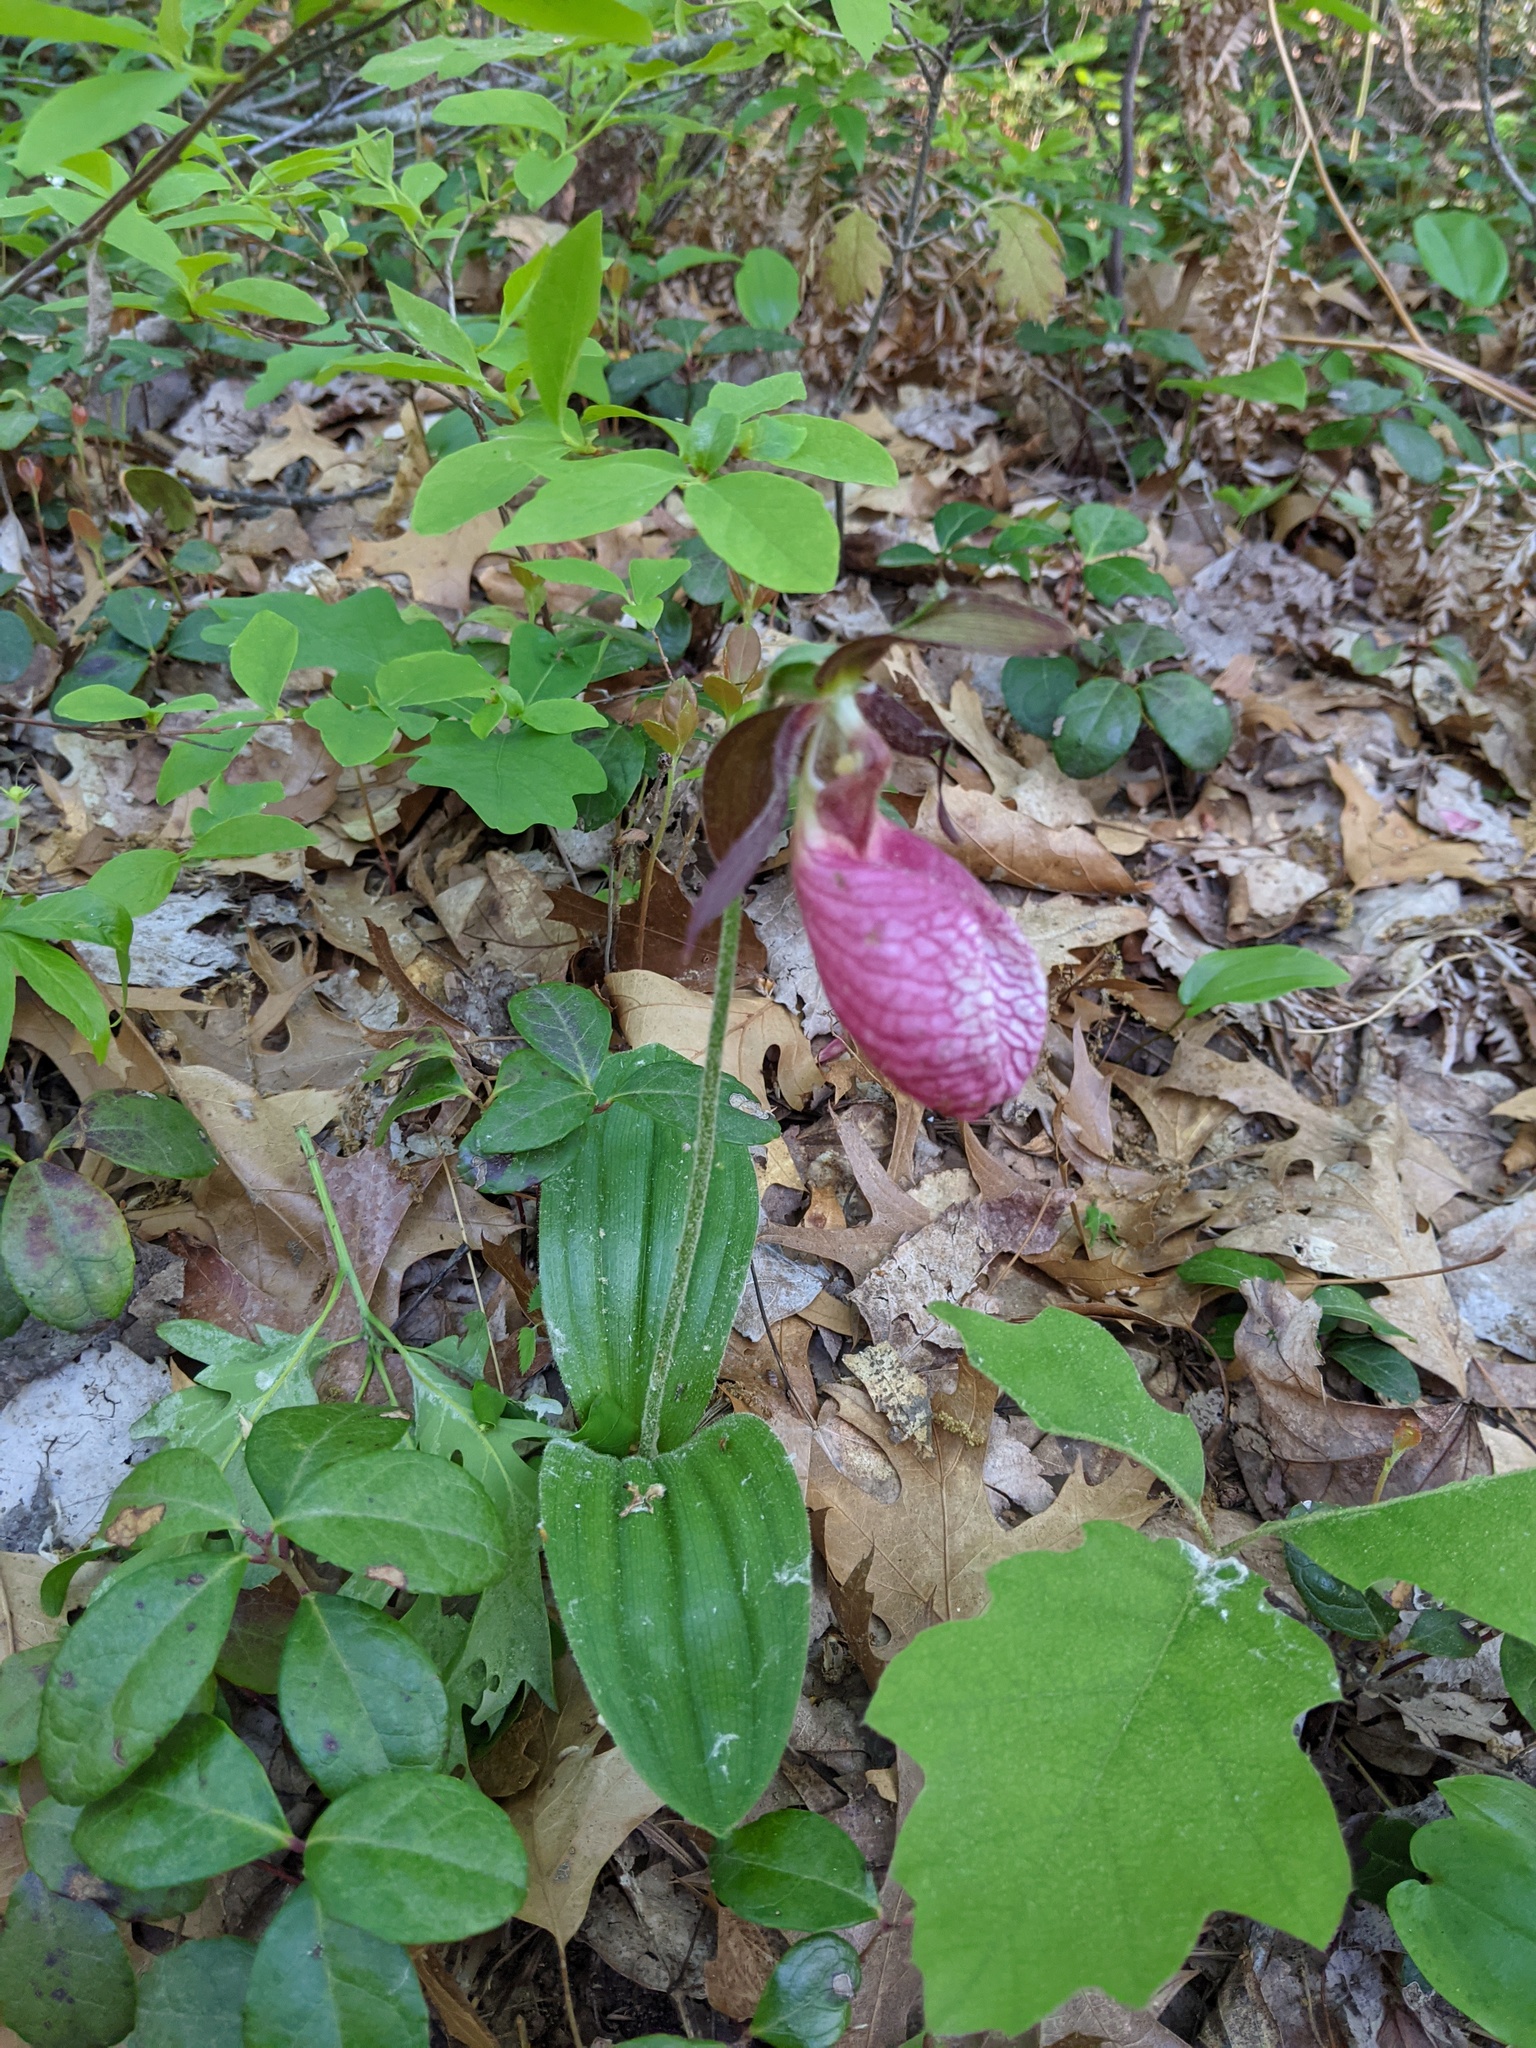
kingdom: Plantae
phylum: Tracheophyta
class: Liliopsida
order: Asparagales
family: Orchidaceae
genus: Cypripedium
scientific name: Cypripedium acaule
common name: Pink lady's-slipper
